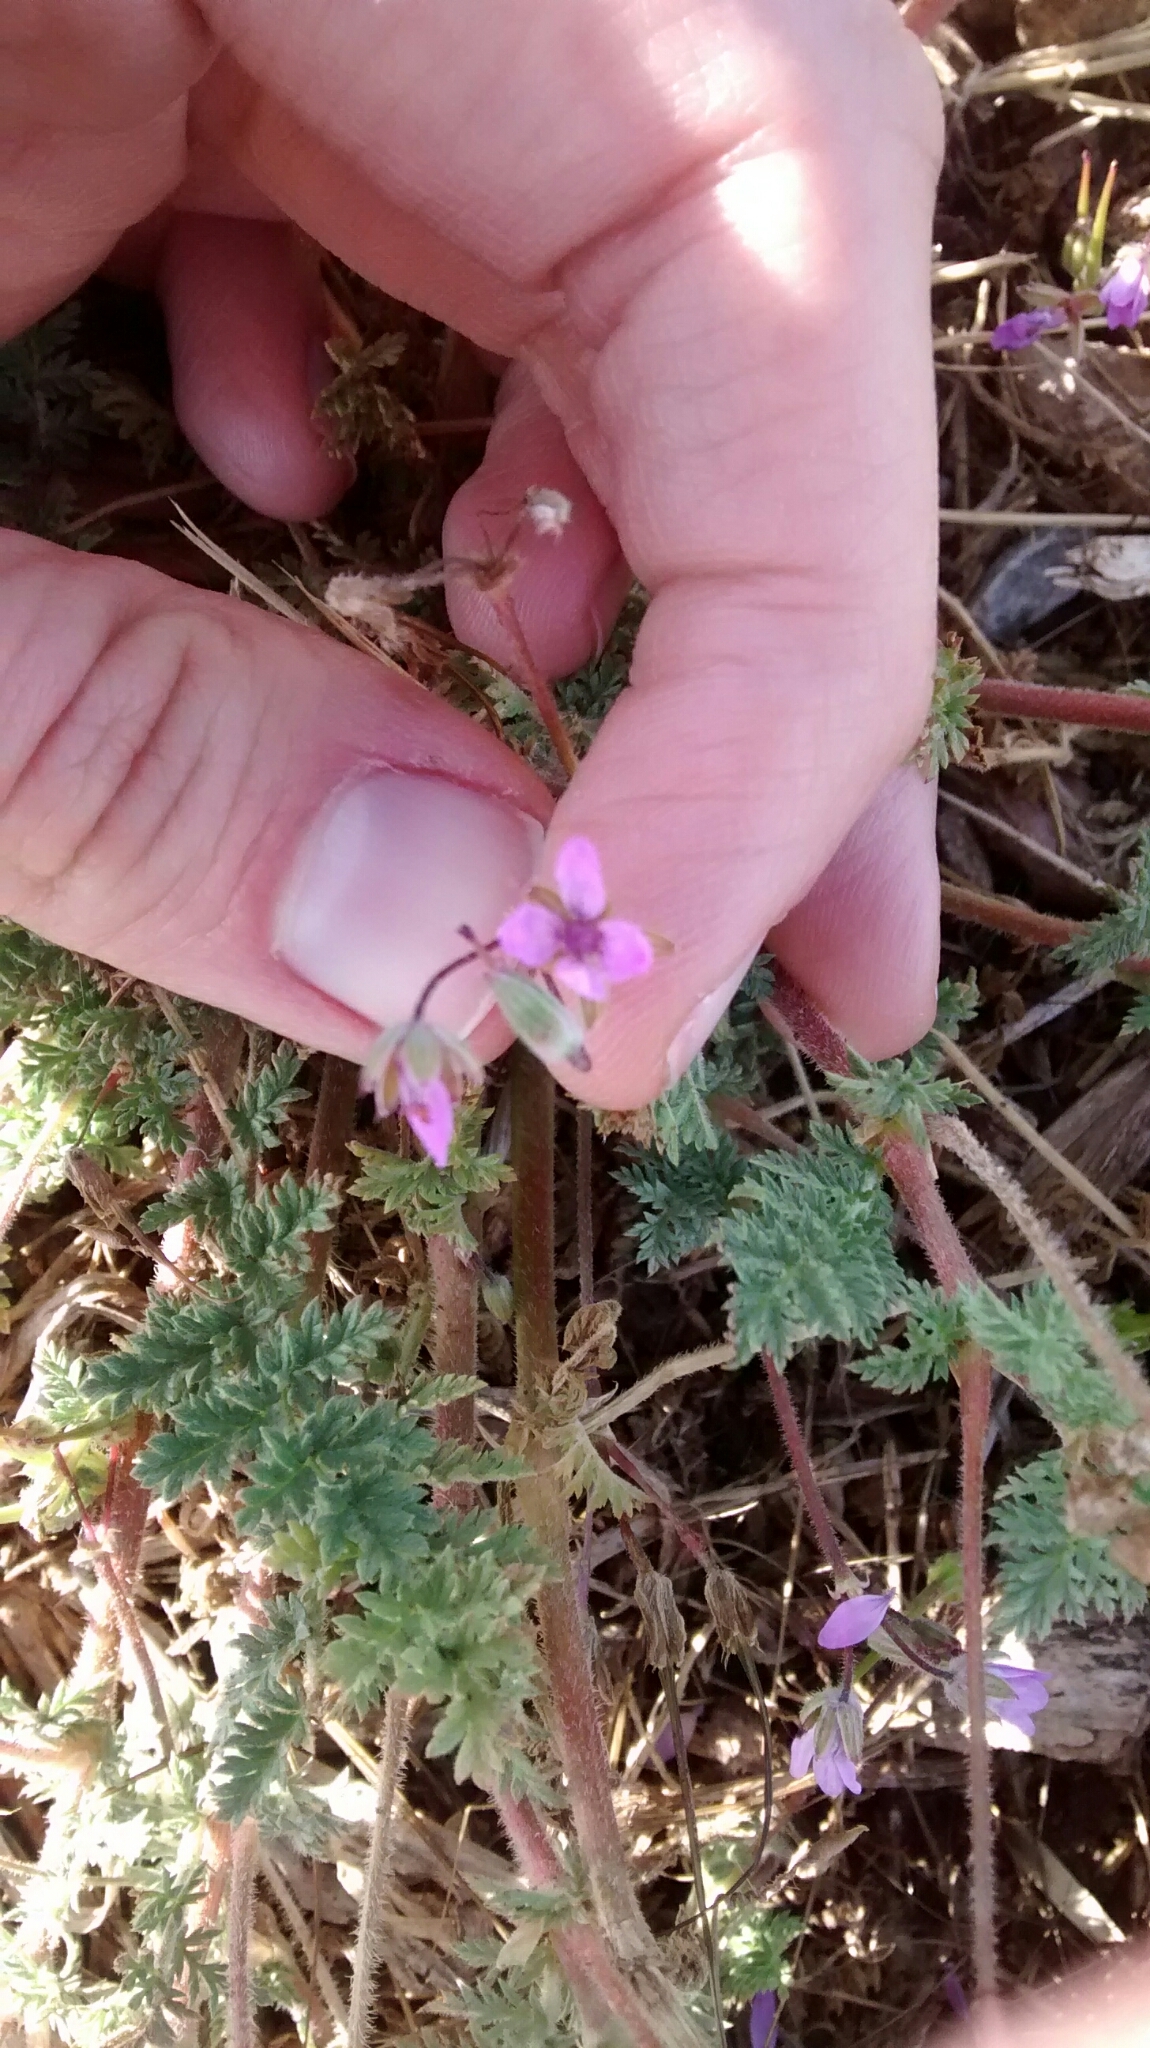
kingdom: Plantae
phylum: Tracheophyta
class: Magnoliopsida
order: Geraniales
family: Geraniaceae
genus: Erodium
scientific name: Erodium cicutarium
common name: Common stork's-bill
